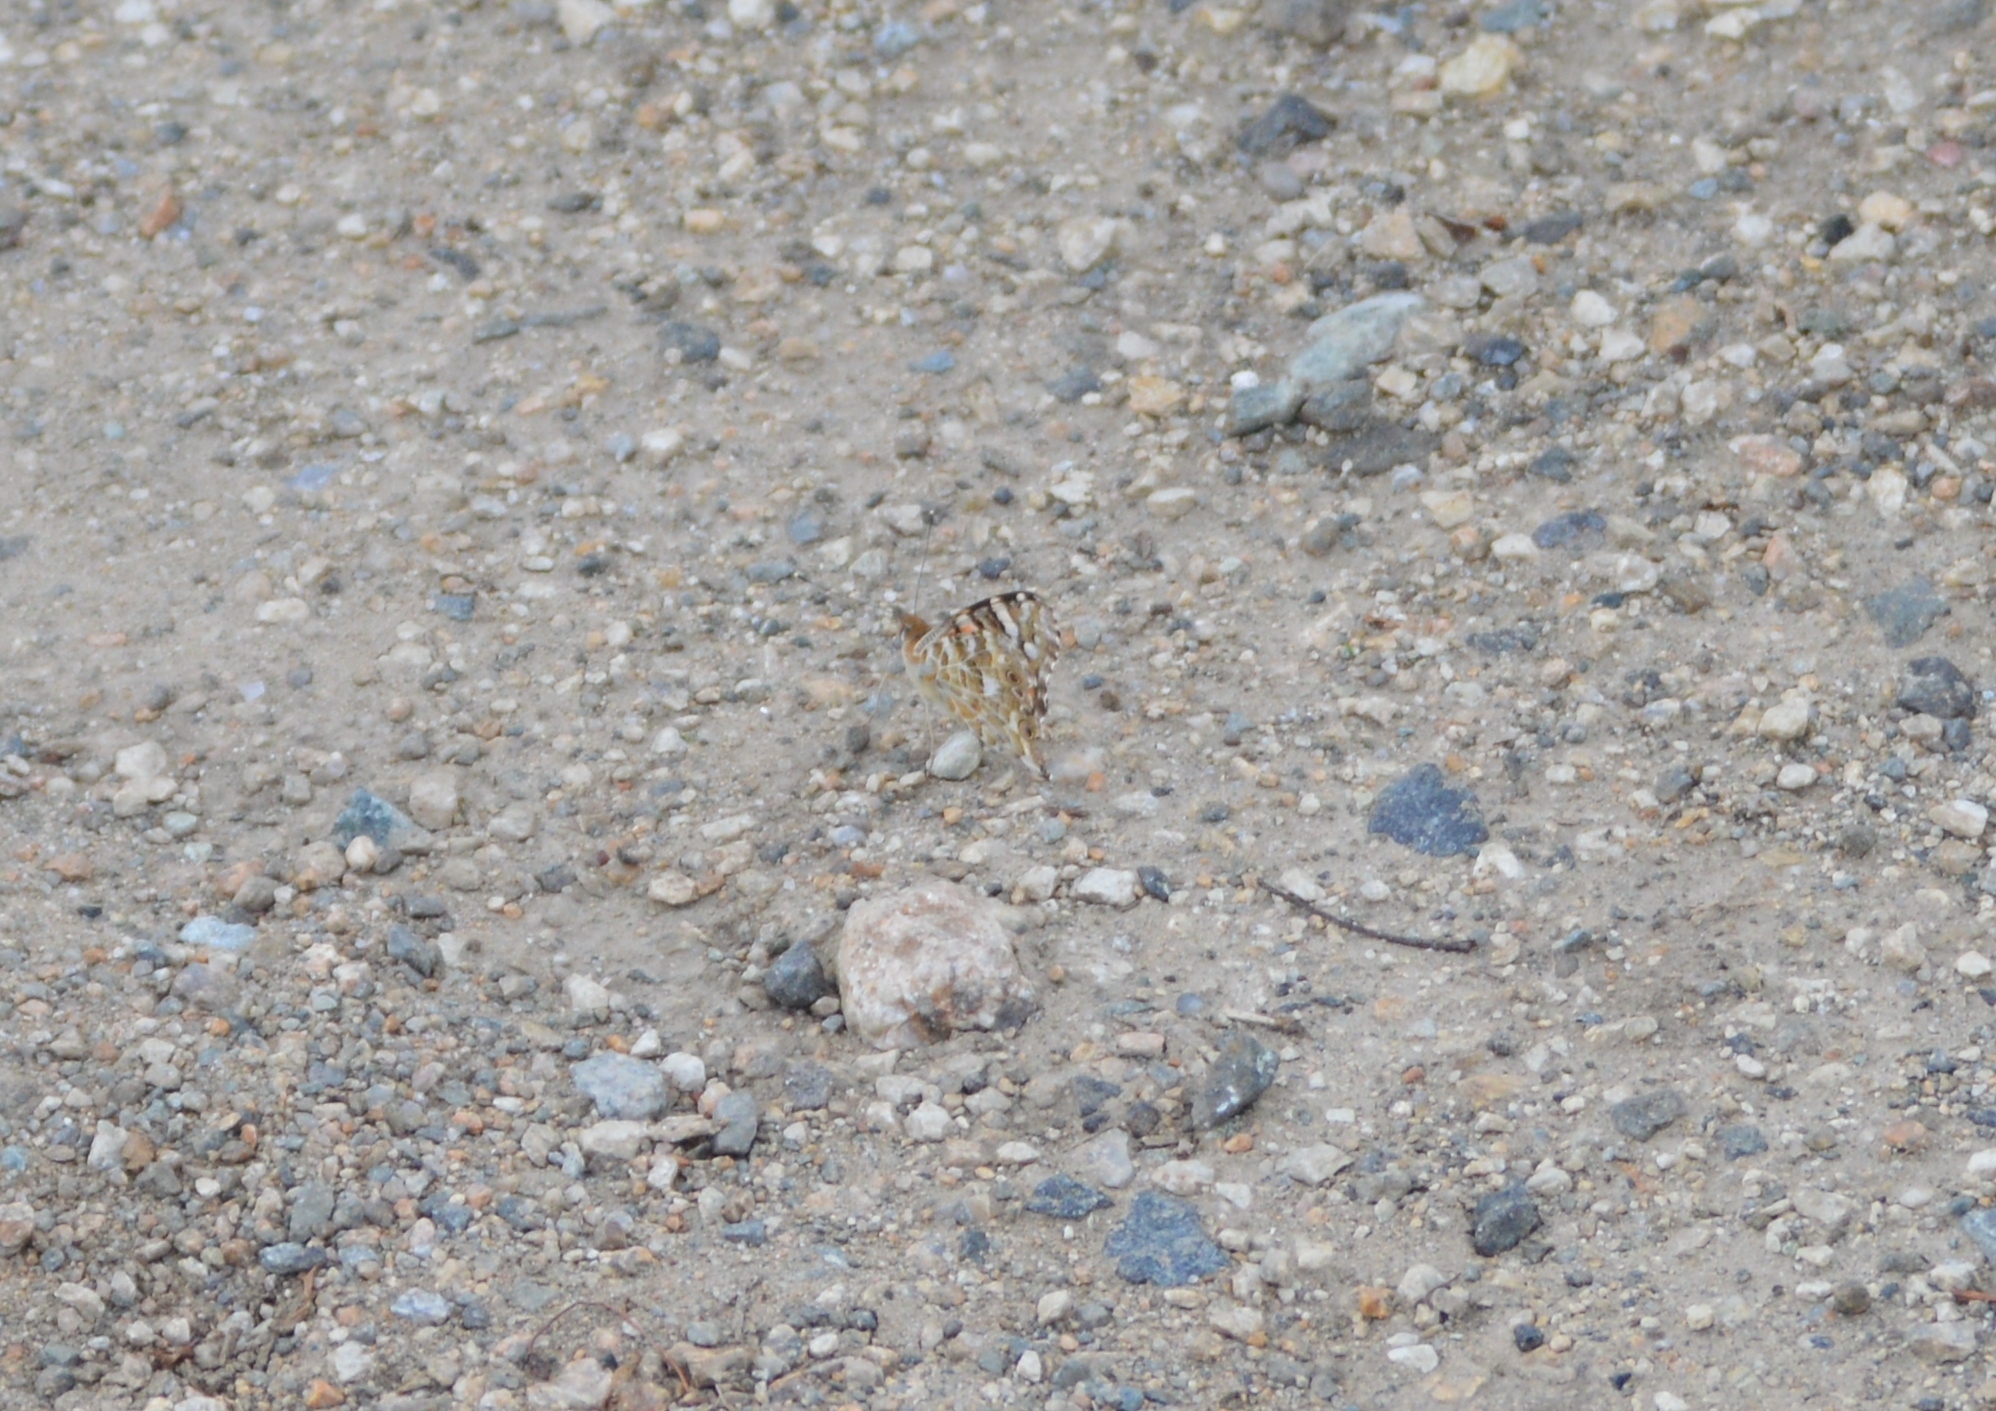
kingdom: Animalia
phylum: Arthropoda
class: Insecta
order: Lepidoptera
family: Nymphalidae
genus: Vanessa
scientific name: Vanessa cardui
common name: Painted lady
